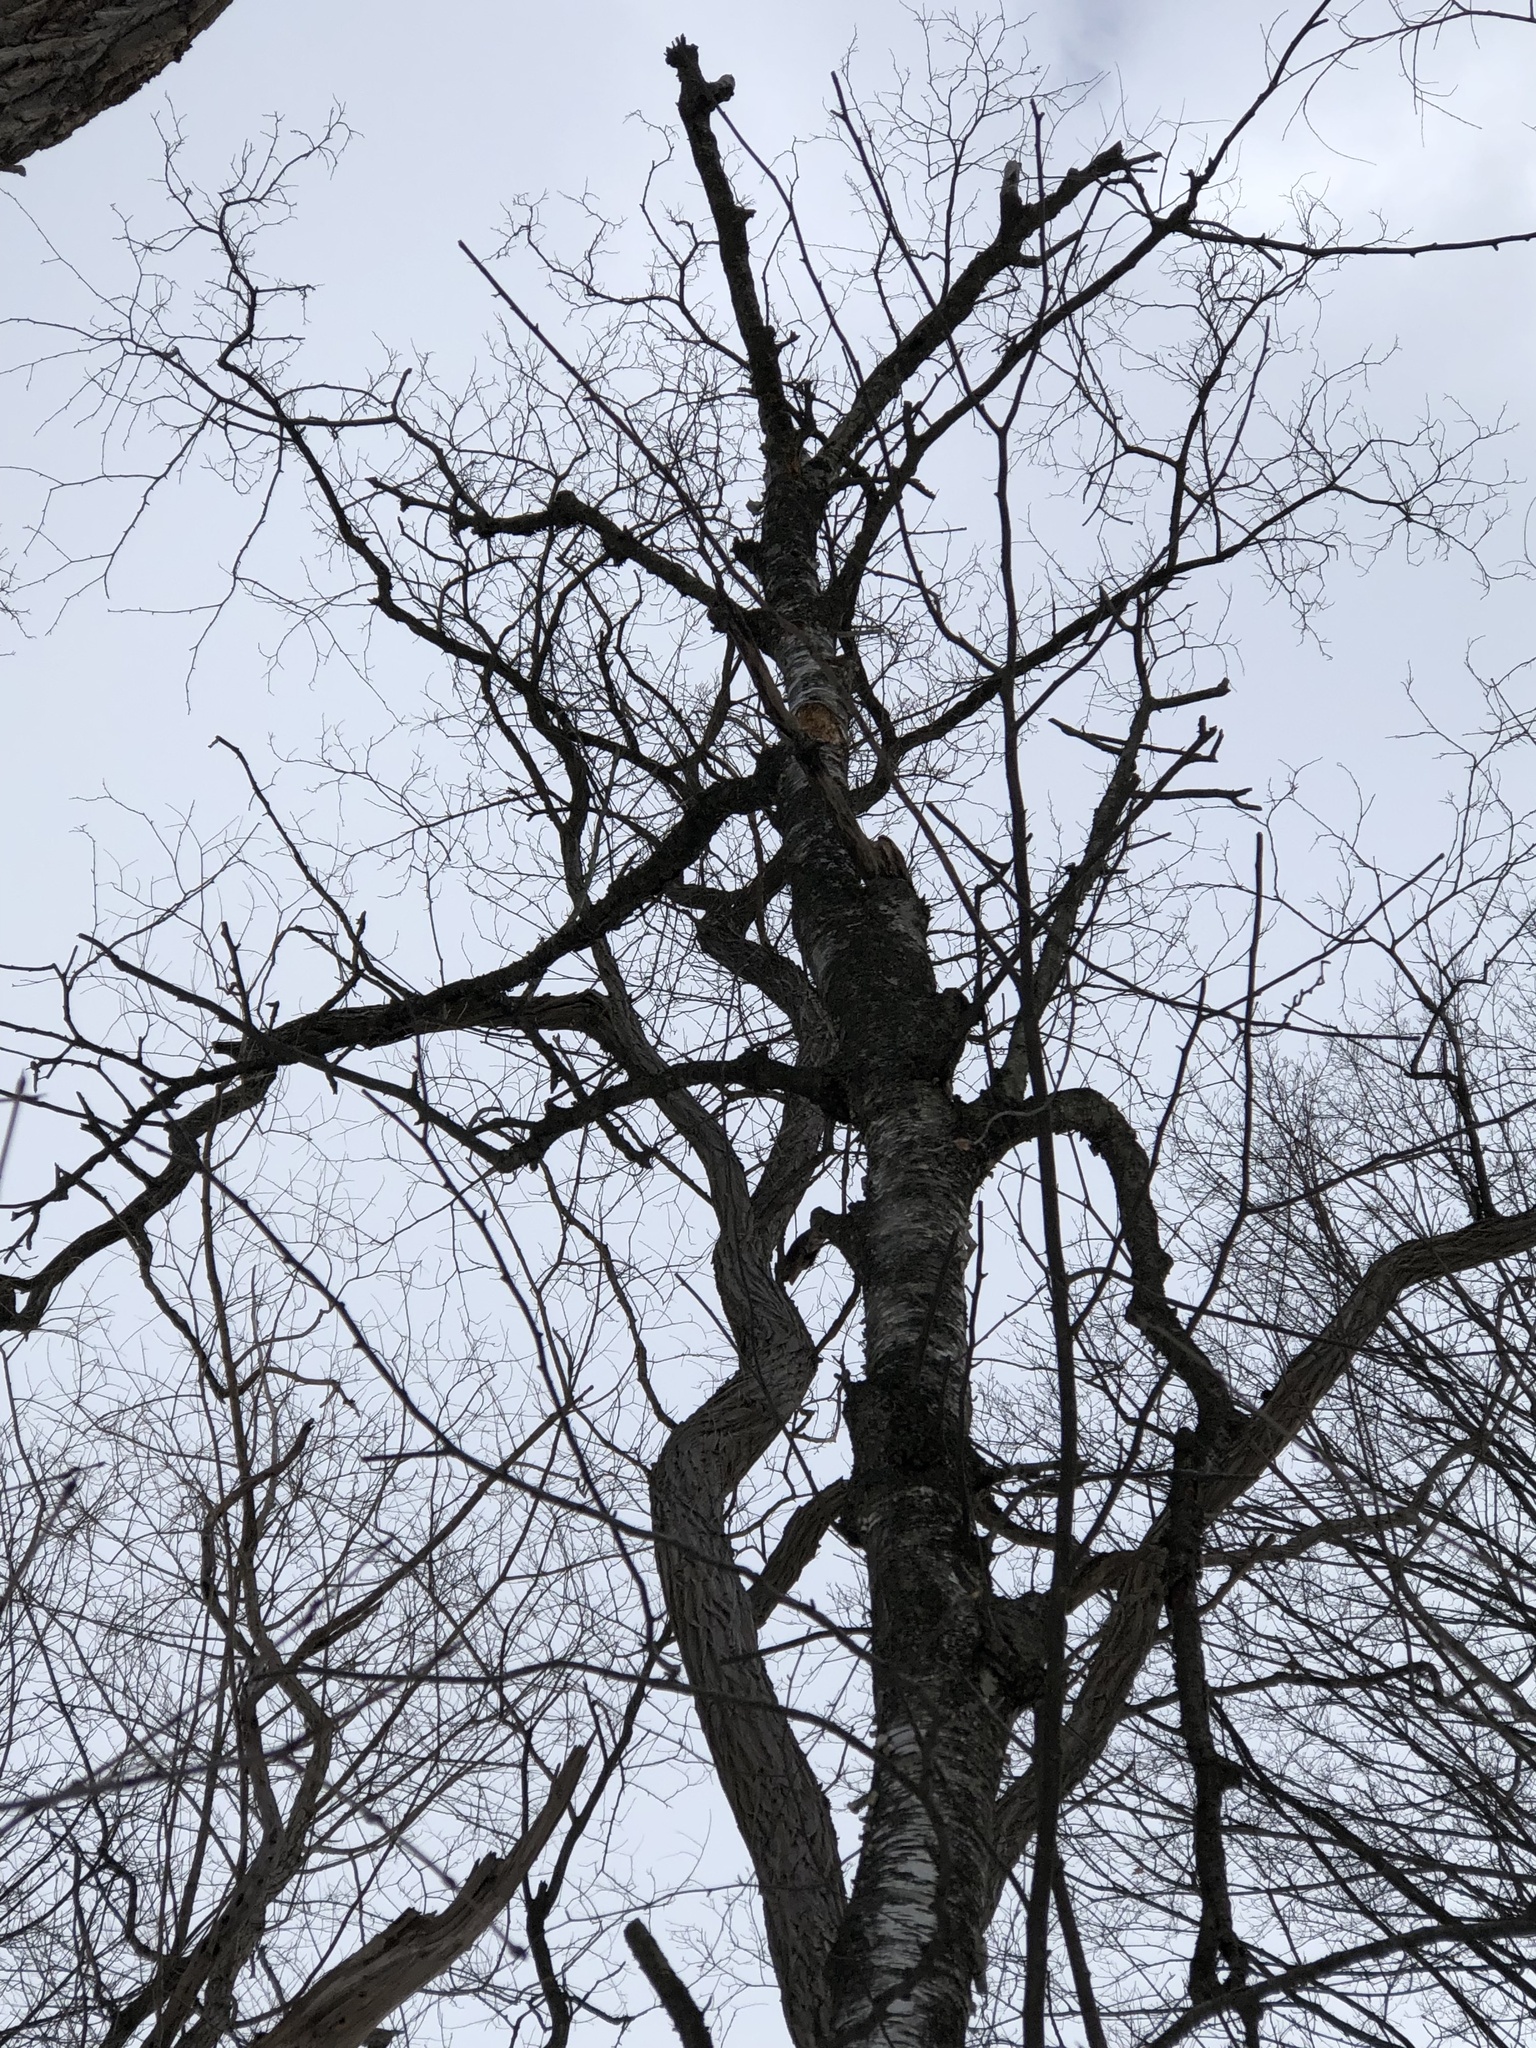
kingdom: Plantae
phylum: Tracheophyta
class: Magnoliopsida
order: Fagales
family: Betulaceae
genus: Betula
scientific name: Betula papyrifera
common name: Paper birch
